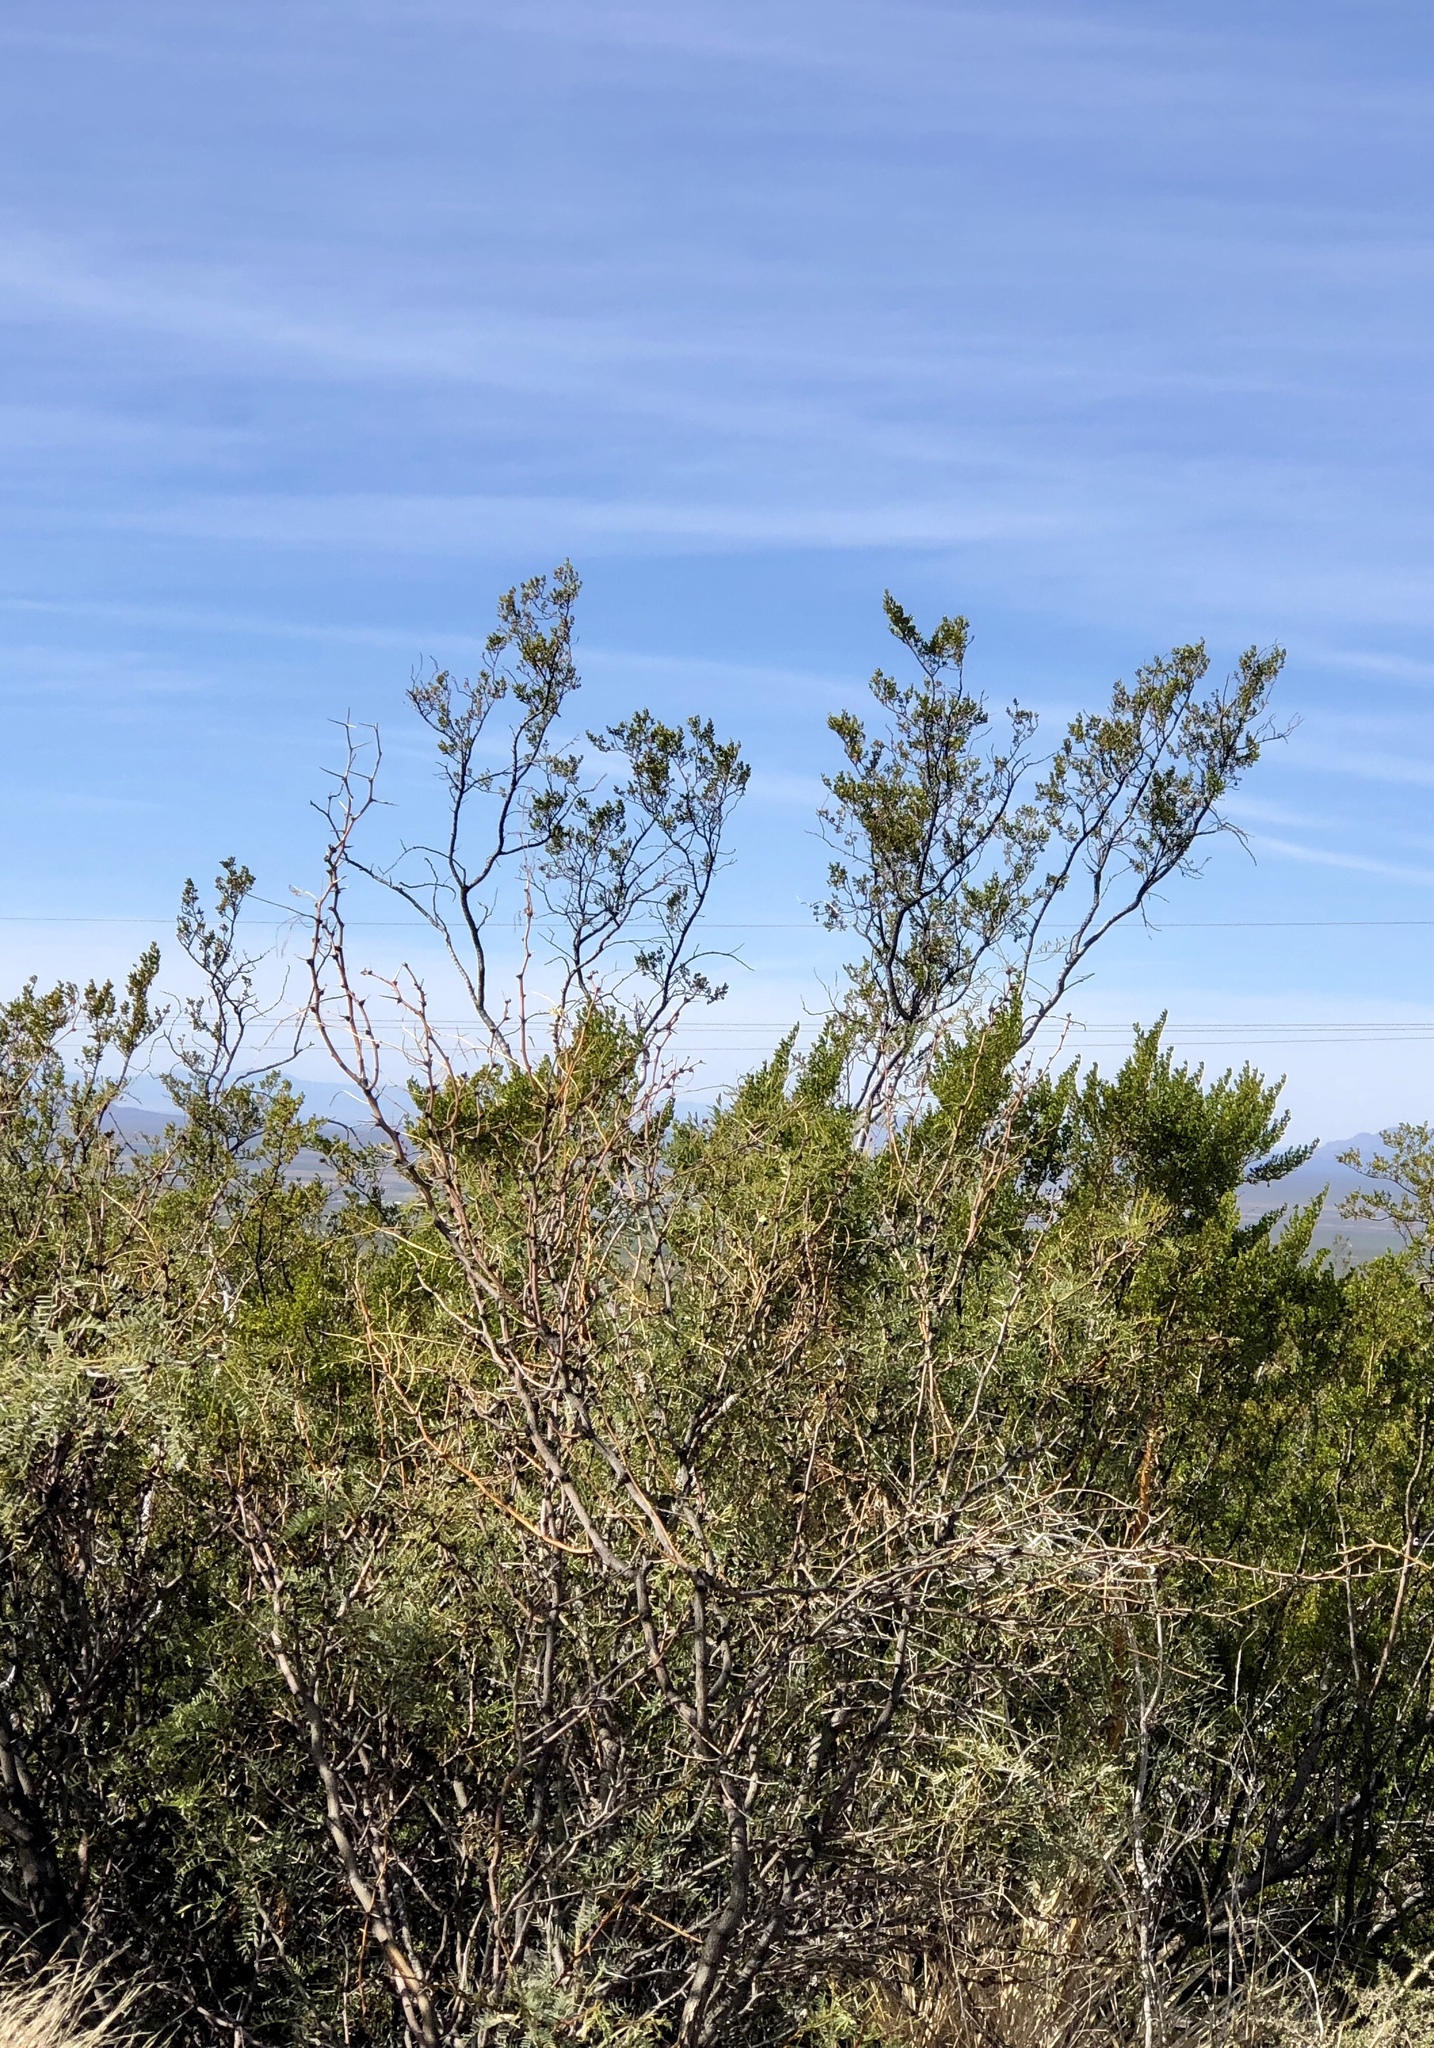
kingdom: Plantae
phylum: Tracheophyta
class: Magnoliopsida
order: Zygophyllales
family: Zygophyllaceae
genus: Larrea
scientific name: Larrea tridentata
